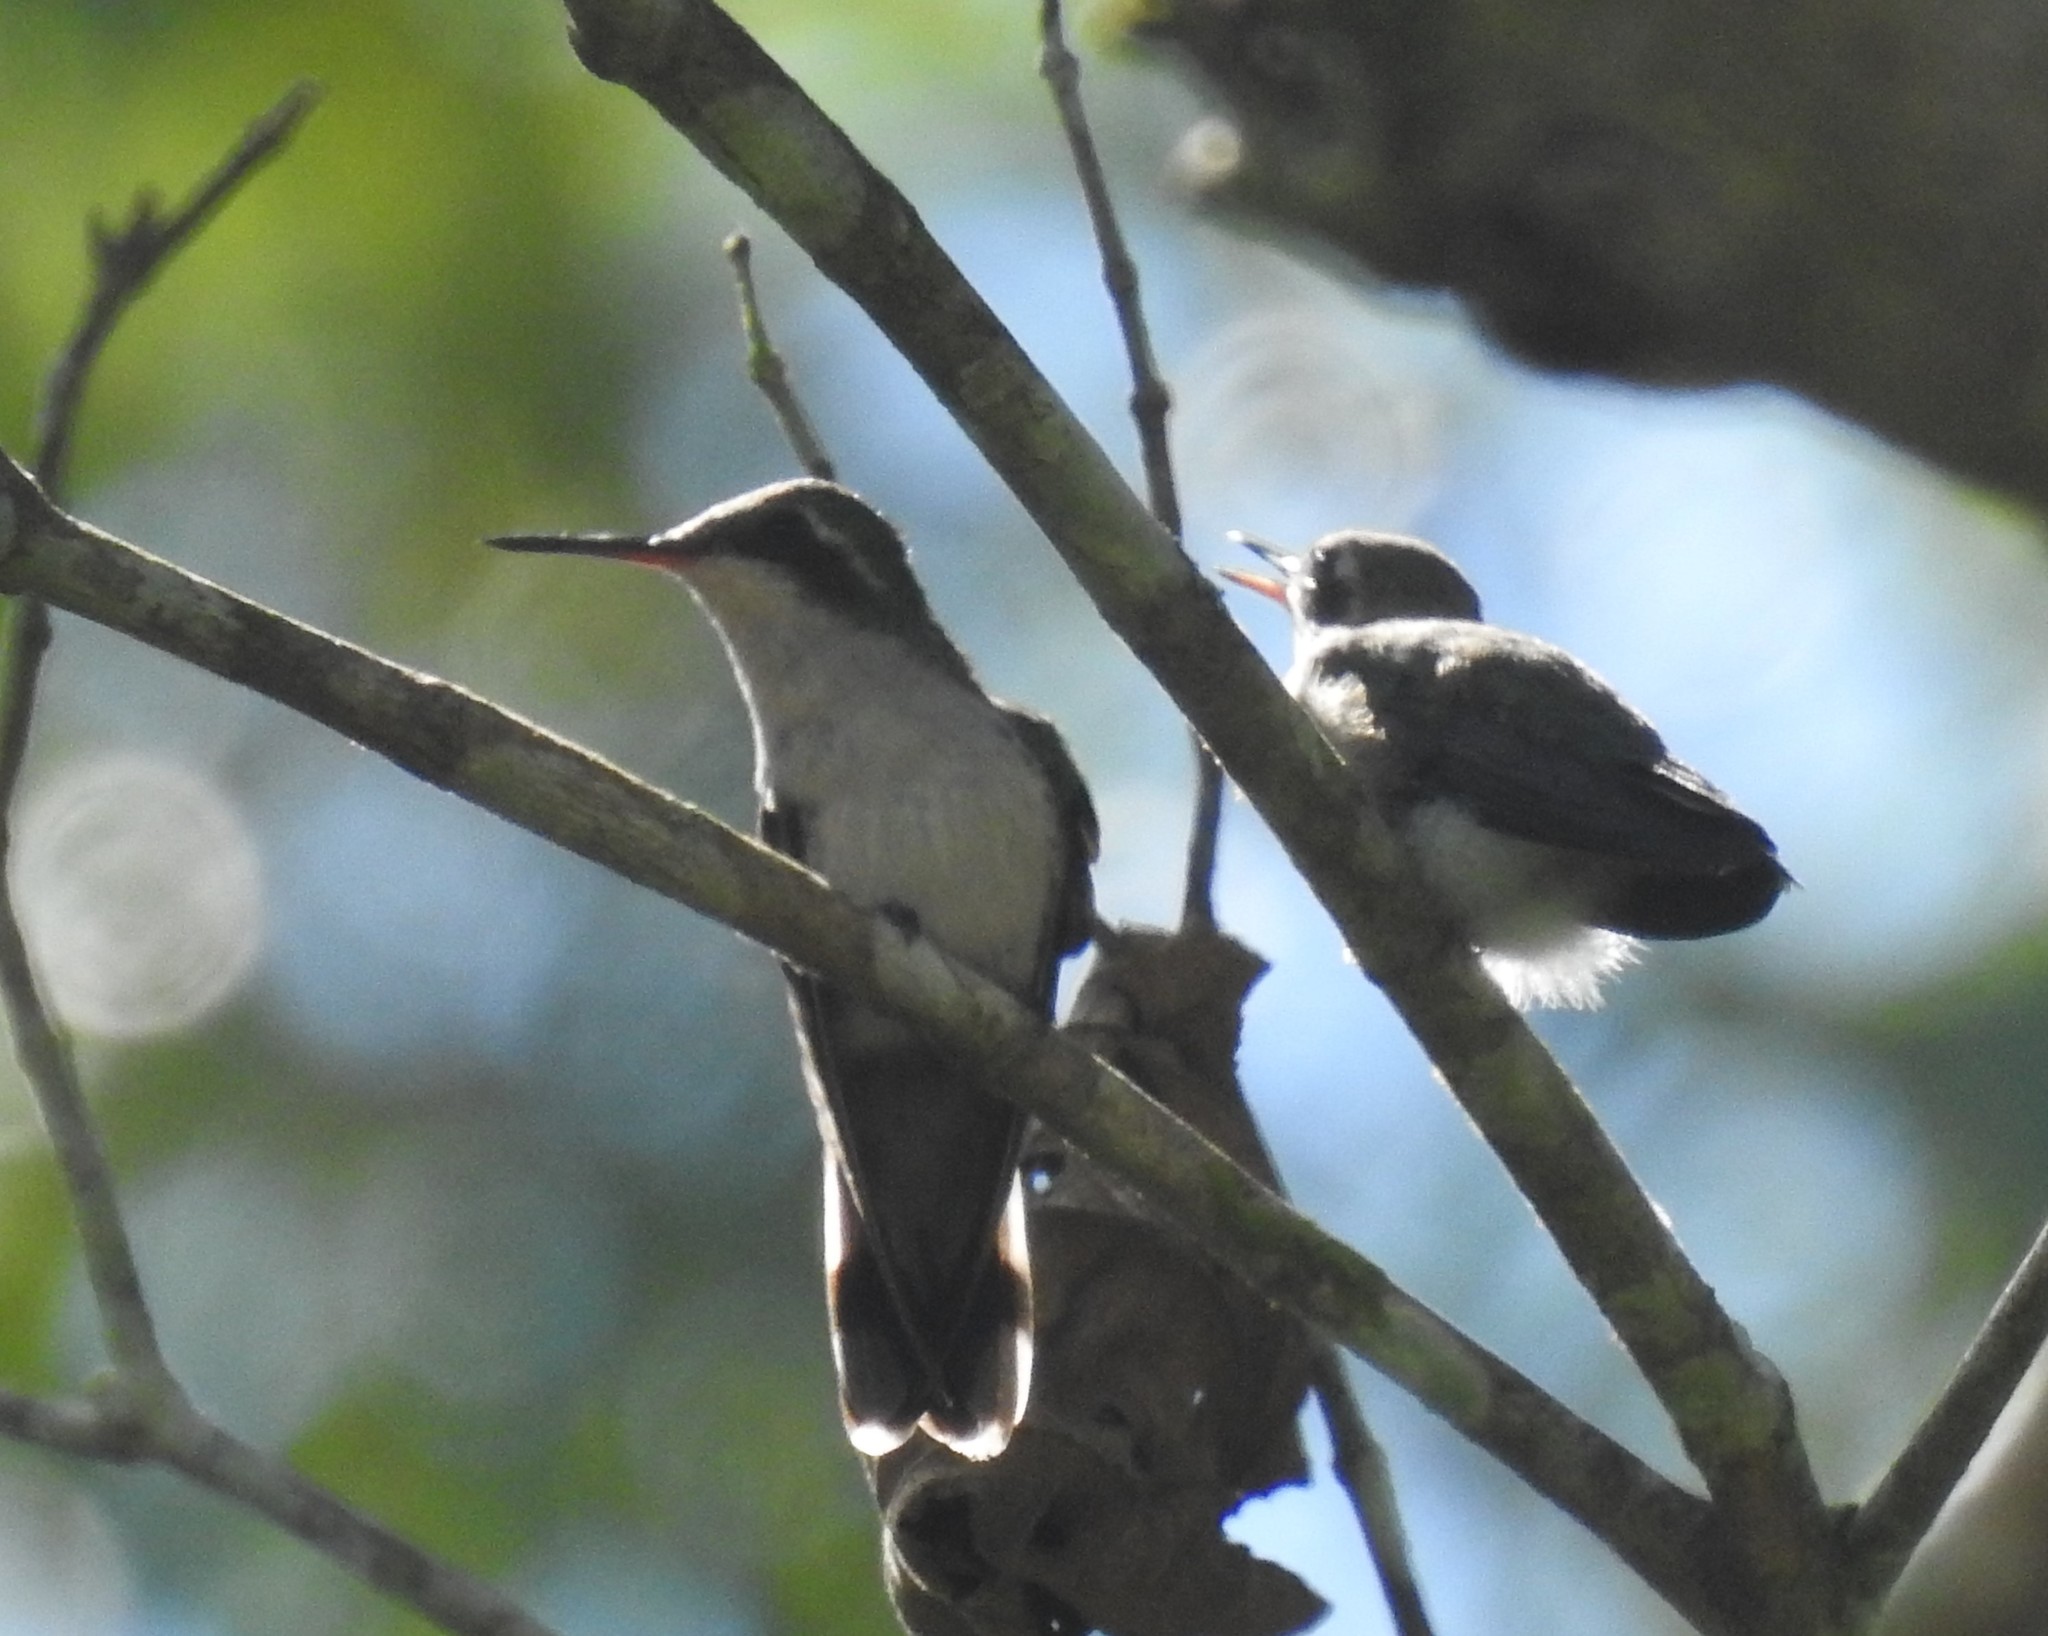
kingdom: Animalia
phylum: Chordata
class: Aves
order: Apodiformes
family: Trochilidae
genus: Cynanthus
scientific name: Cynanthus canivetii
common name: Canivet's emerald
